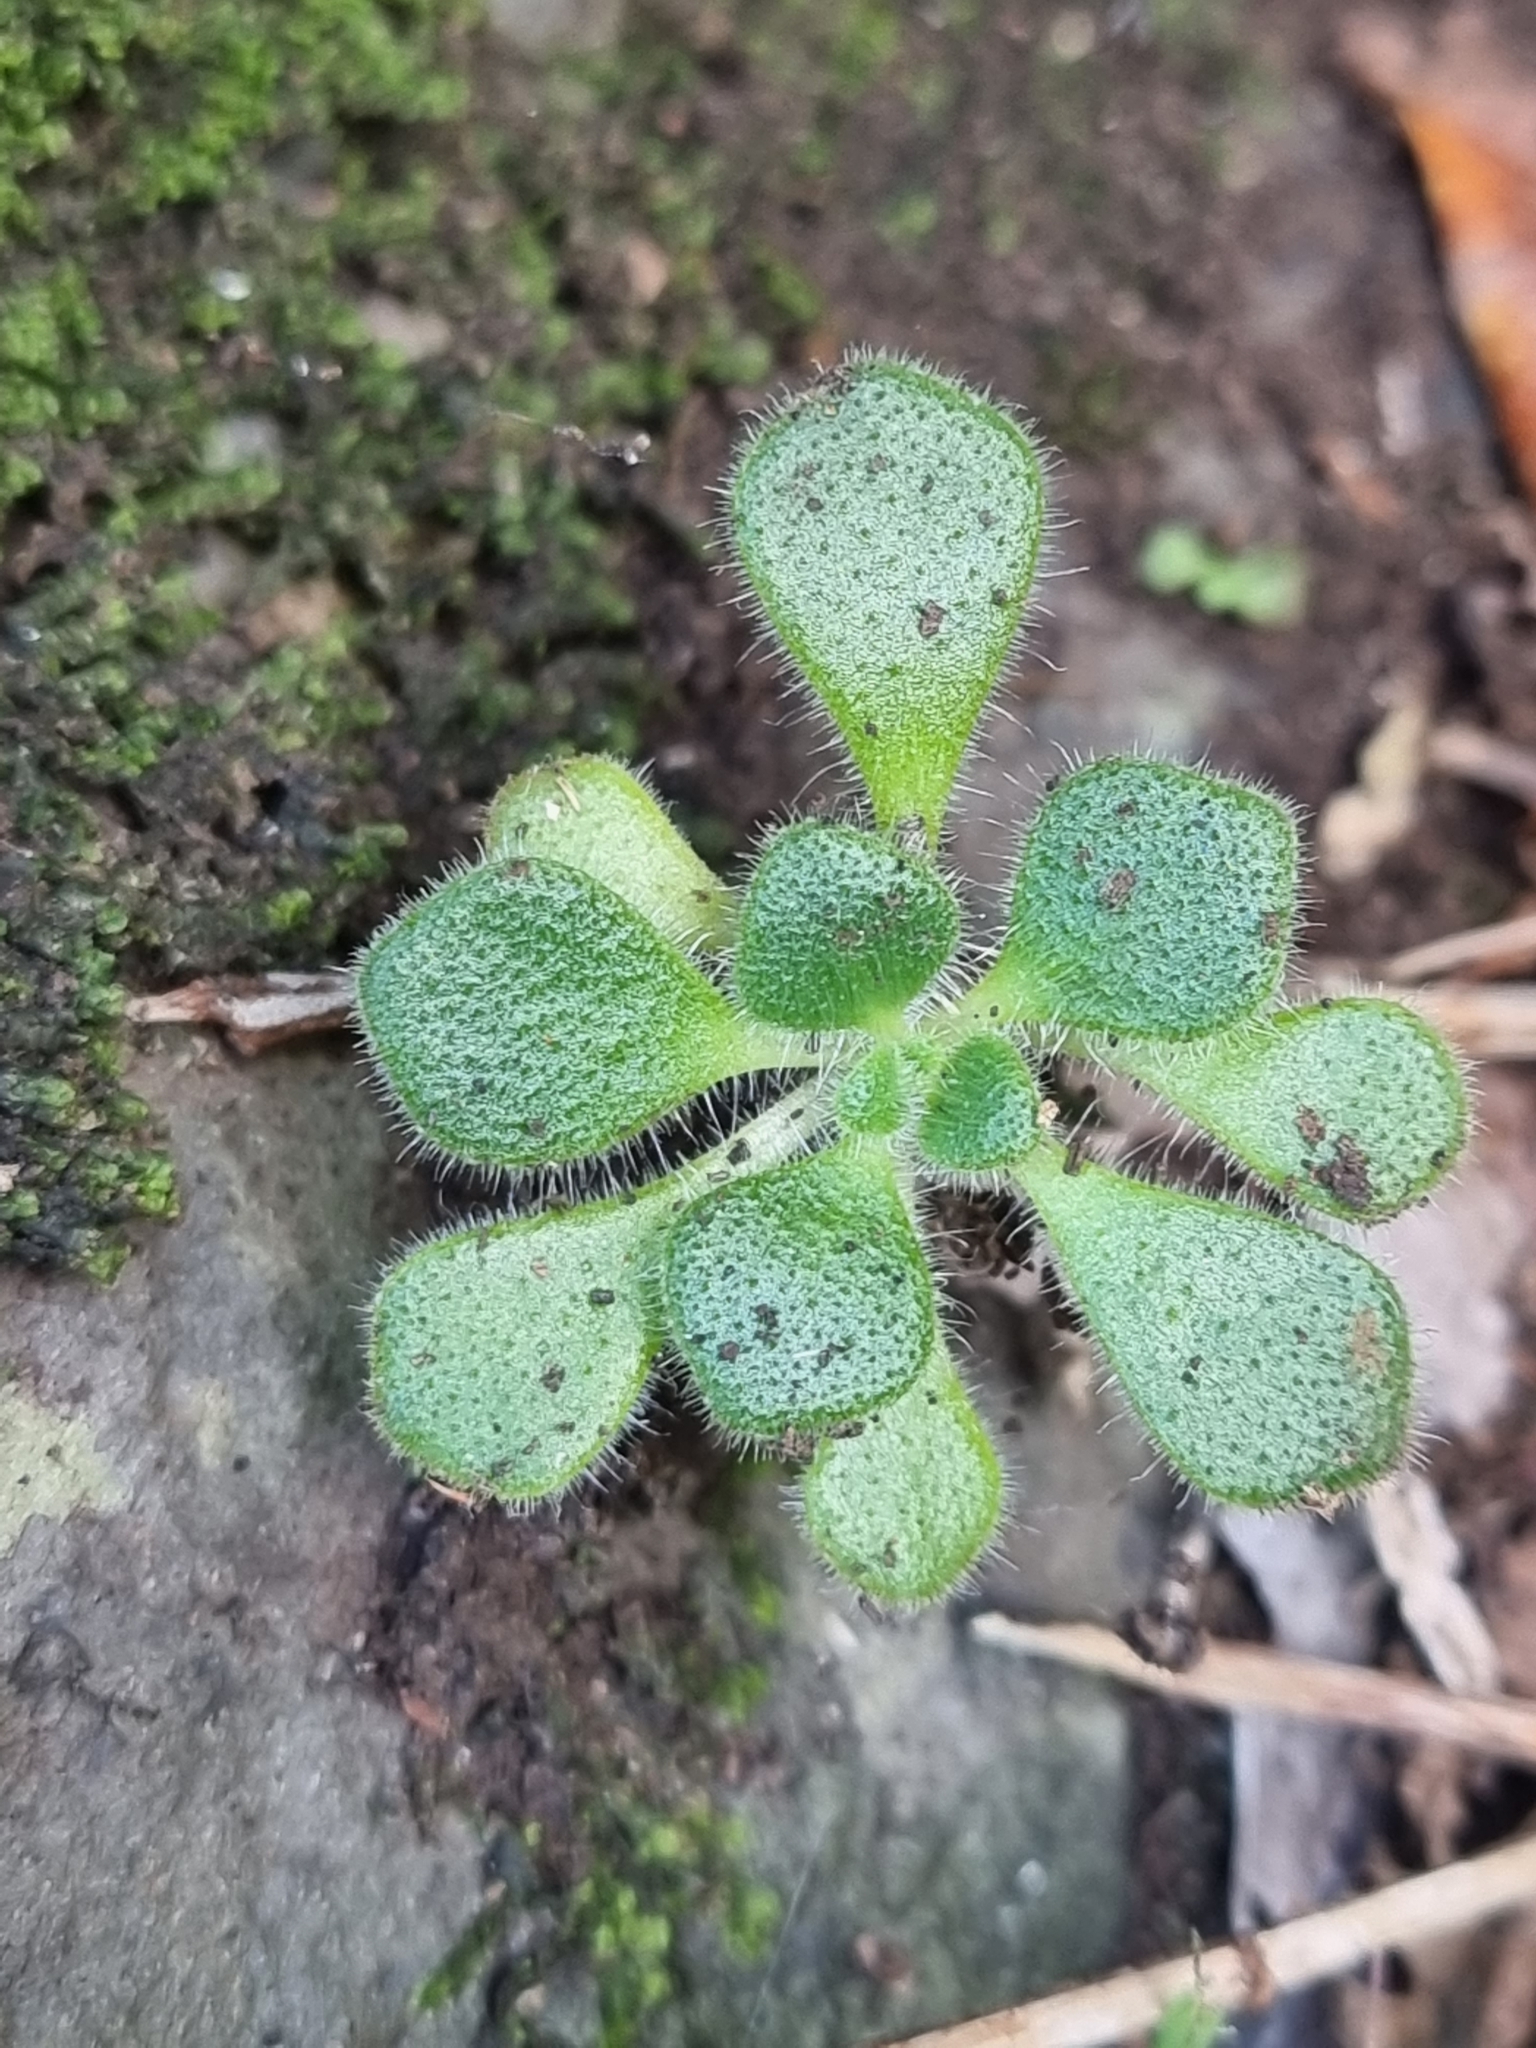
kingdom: Plantae
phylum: Tracheophyta
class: Magnoliopsida
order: Saxifragales
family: Crassulaceae
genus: Aichryson
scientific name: Aichryson villosum
